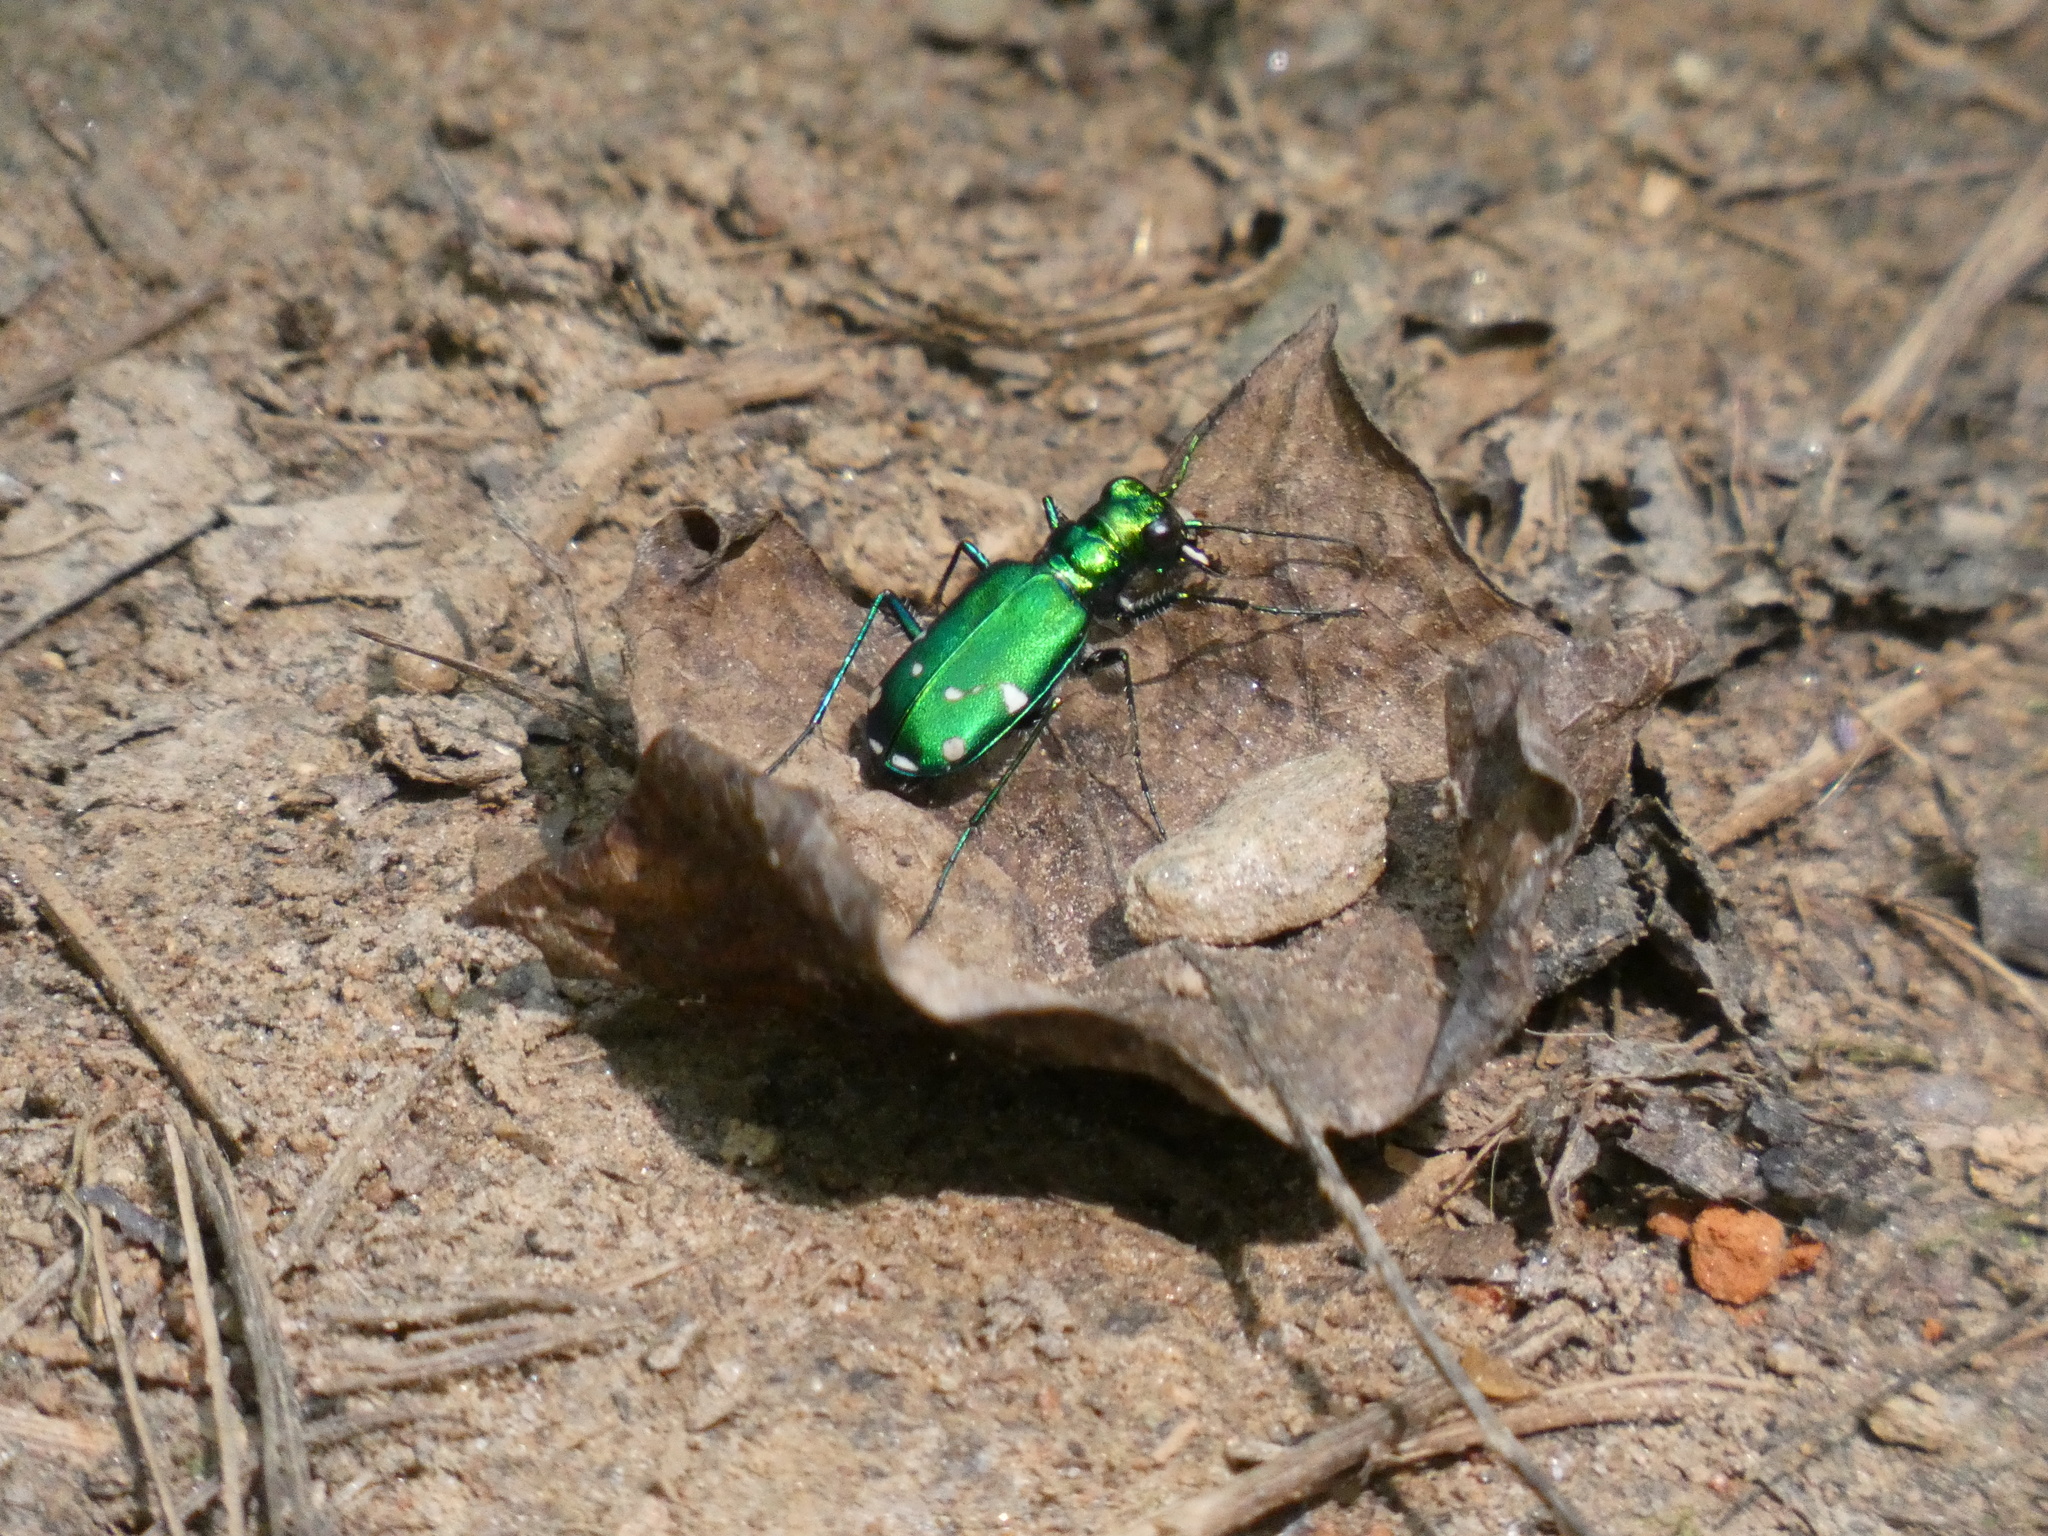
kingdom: Animalia
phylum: Arthropoda
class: Insecta
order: Coleoptera
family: Carabidae
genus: Cicindela
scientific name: Cicindela sexguttata
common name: Six-spotted tiger beetle
